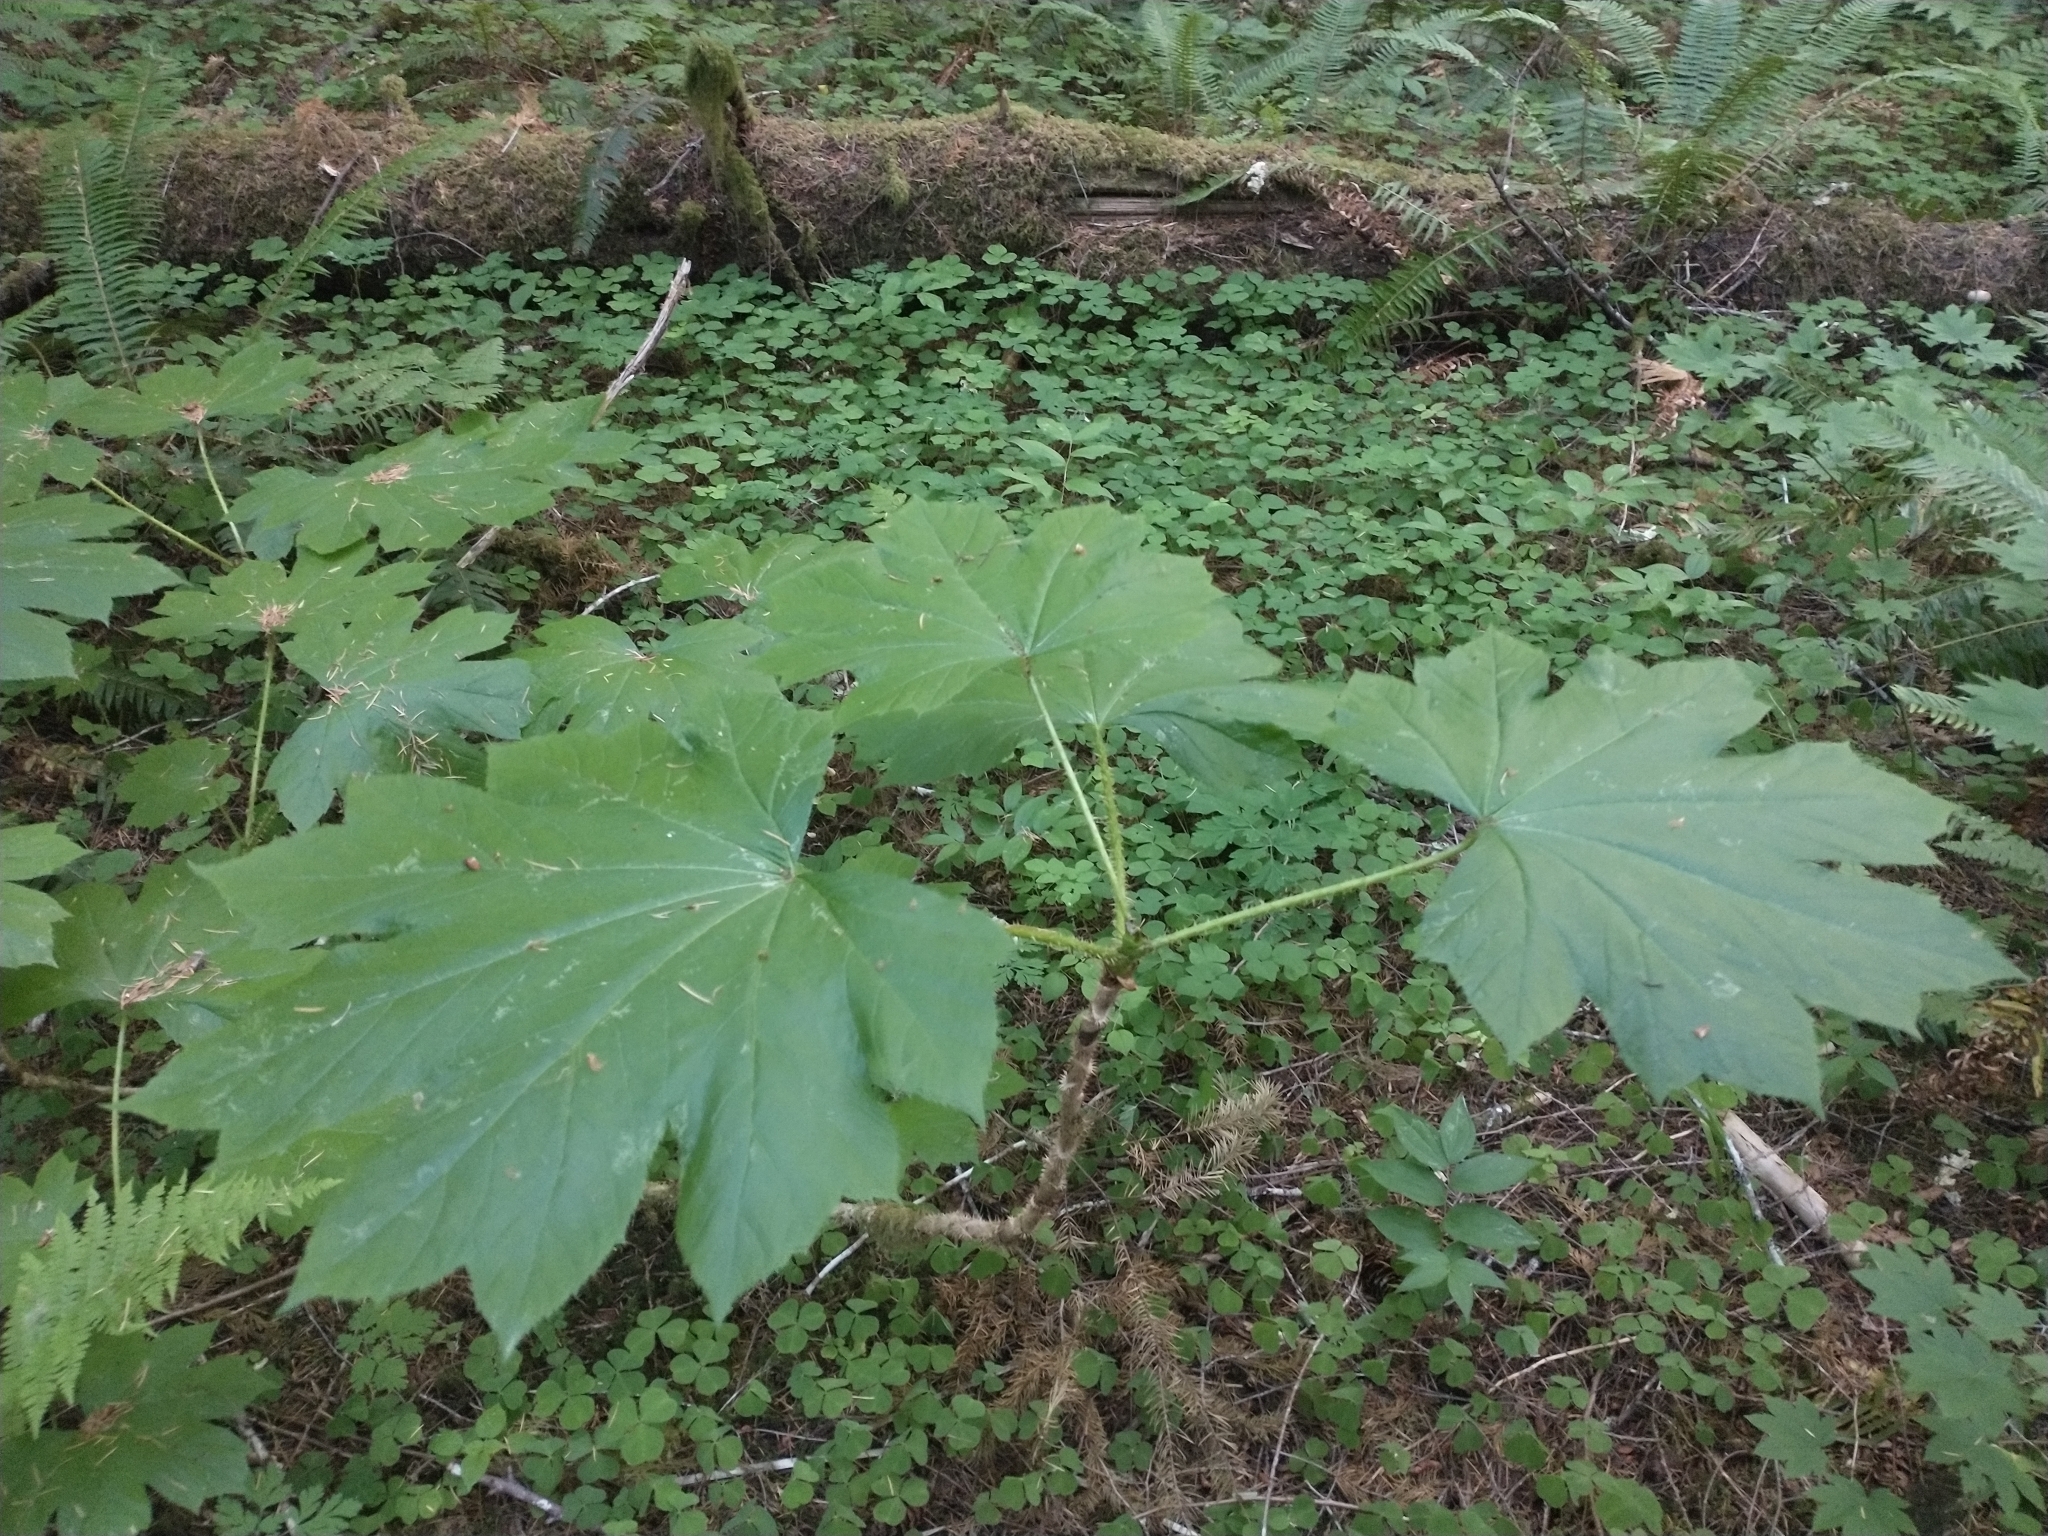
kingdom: Plantae
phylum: Tracheophyta
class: Magnoliopsida
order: Apiales
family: Araliaceae
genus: Oplopanax
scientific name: Oplopanax horridus
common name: Devil's walking-stick
